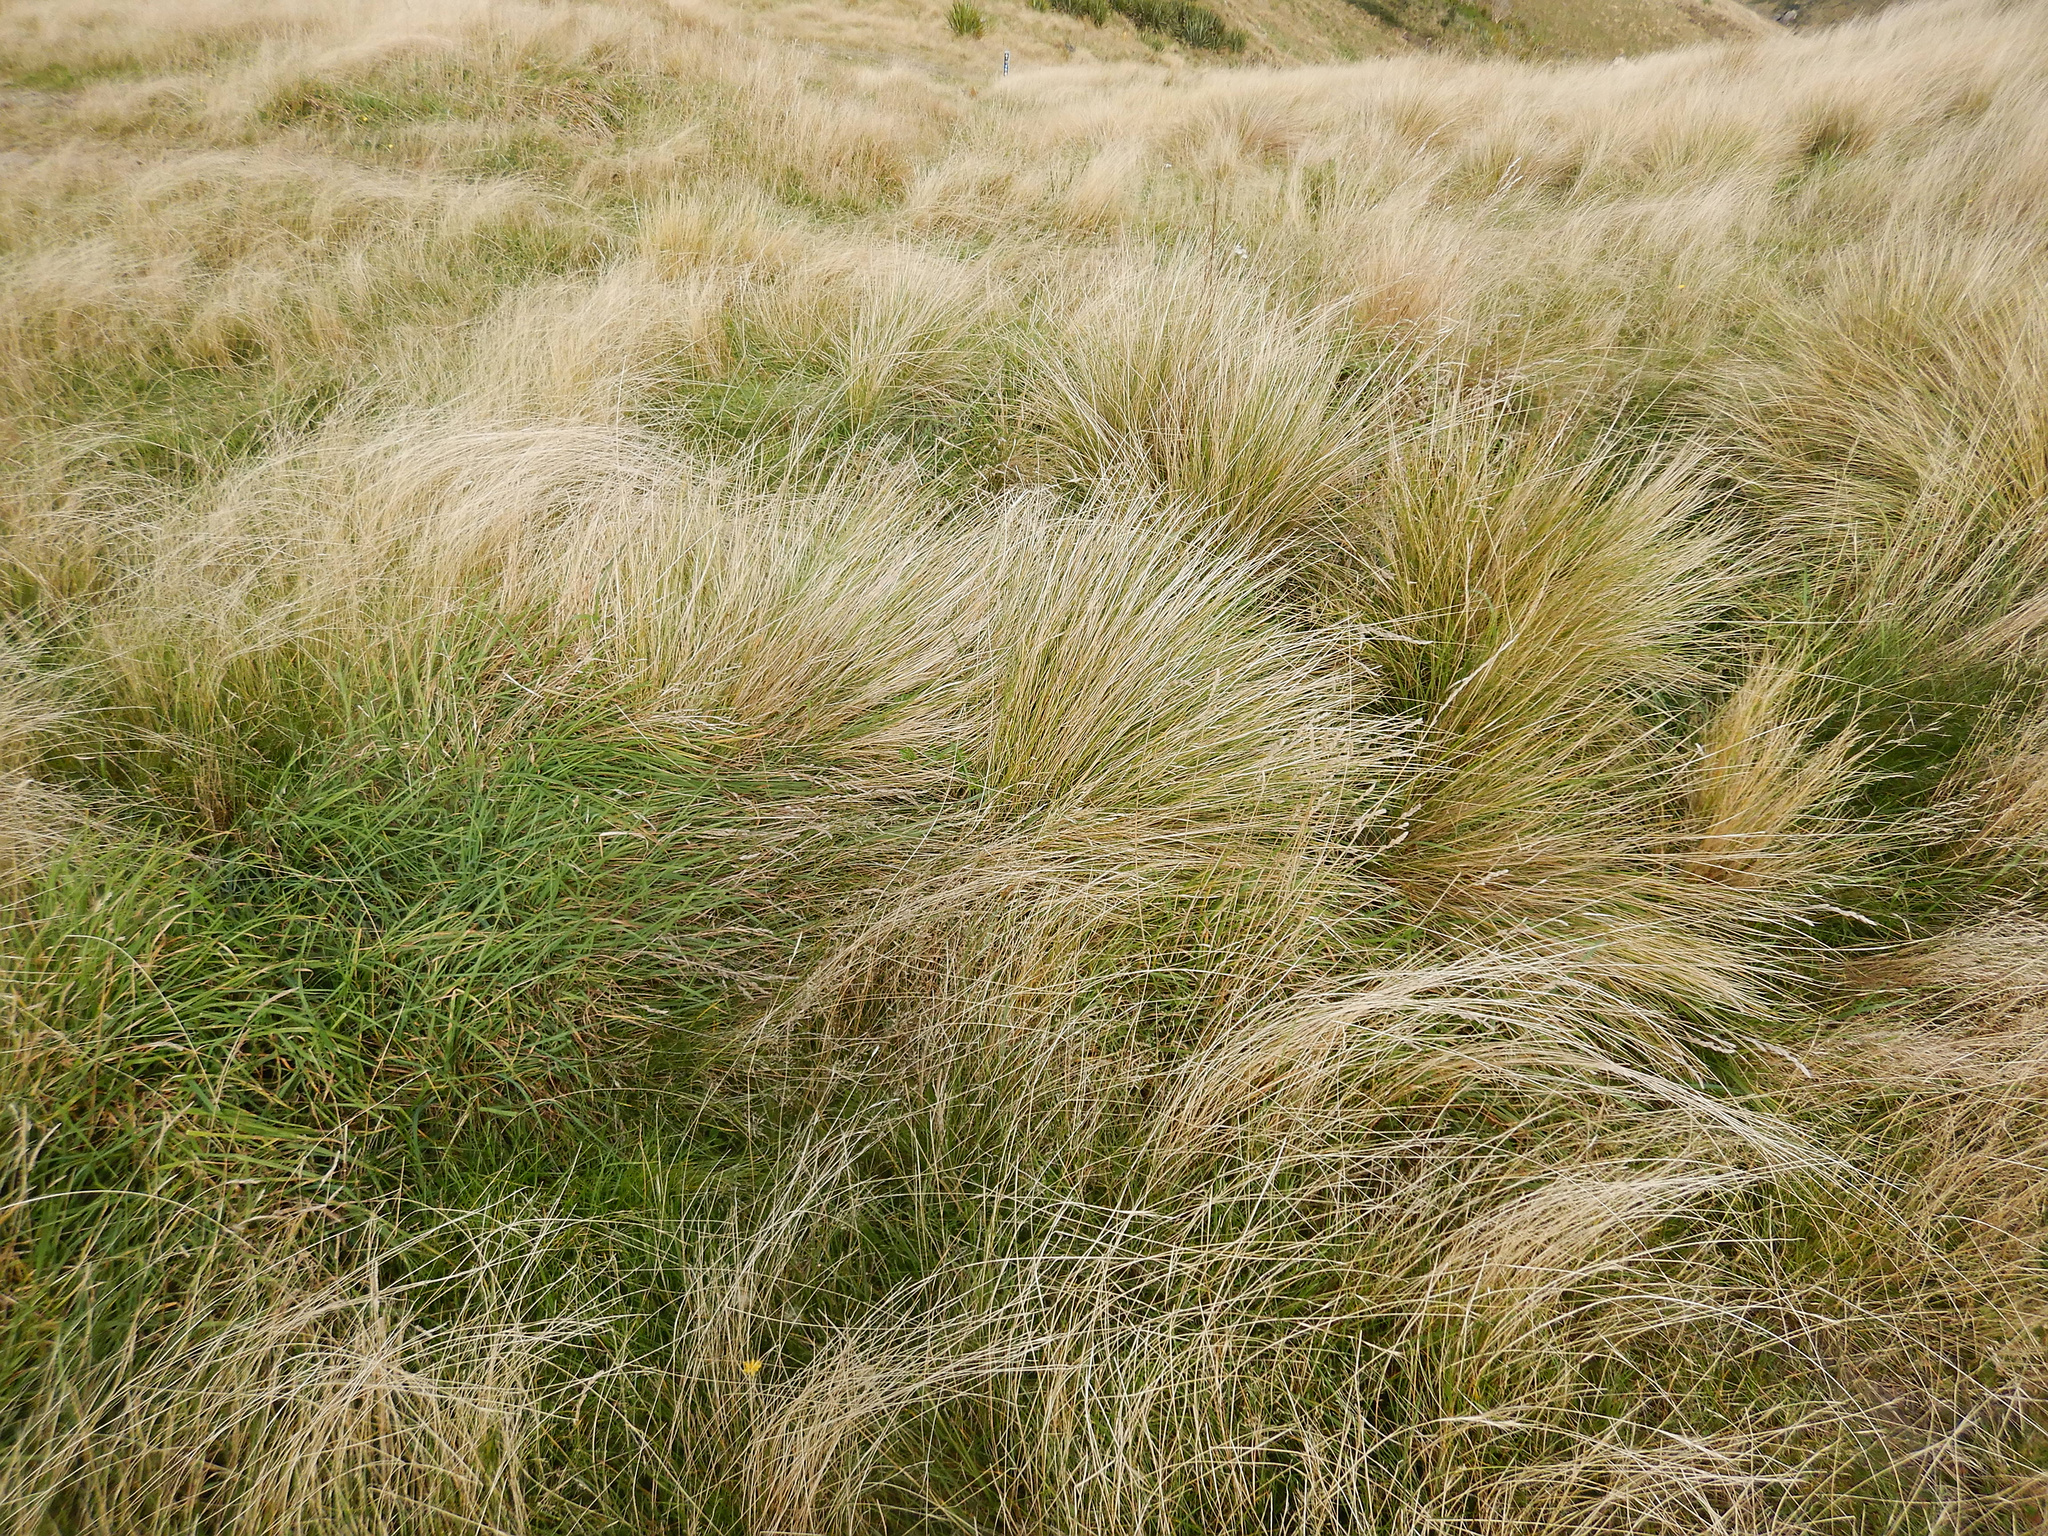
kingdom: Plantae
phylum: Tracheophyta
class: Liliopsida
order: Poales
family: Poaceae
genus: Poa
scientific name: Poa cita
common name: Silver tussock
